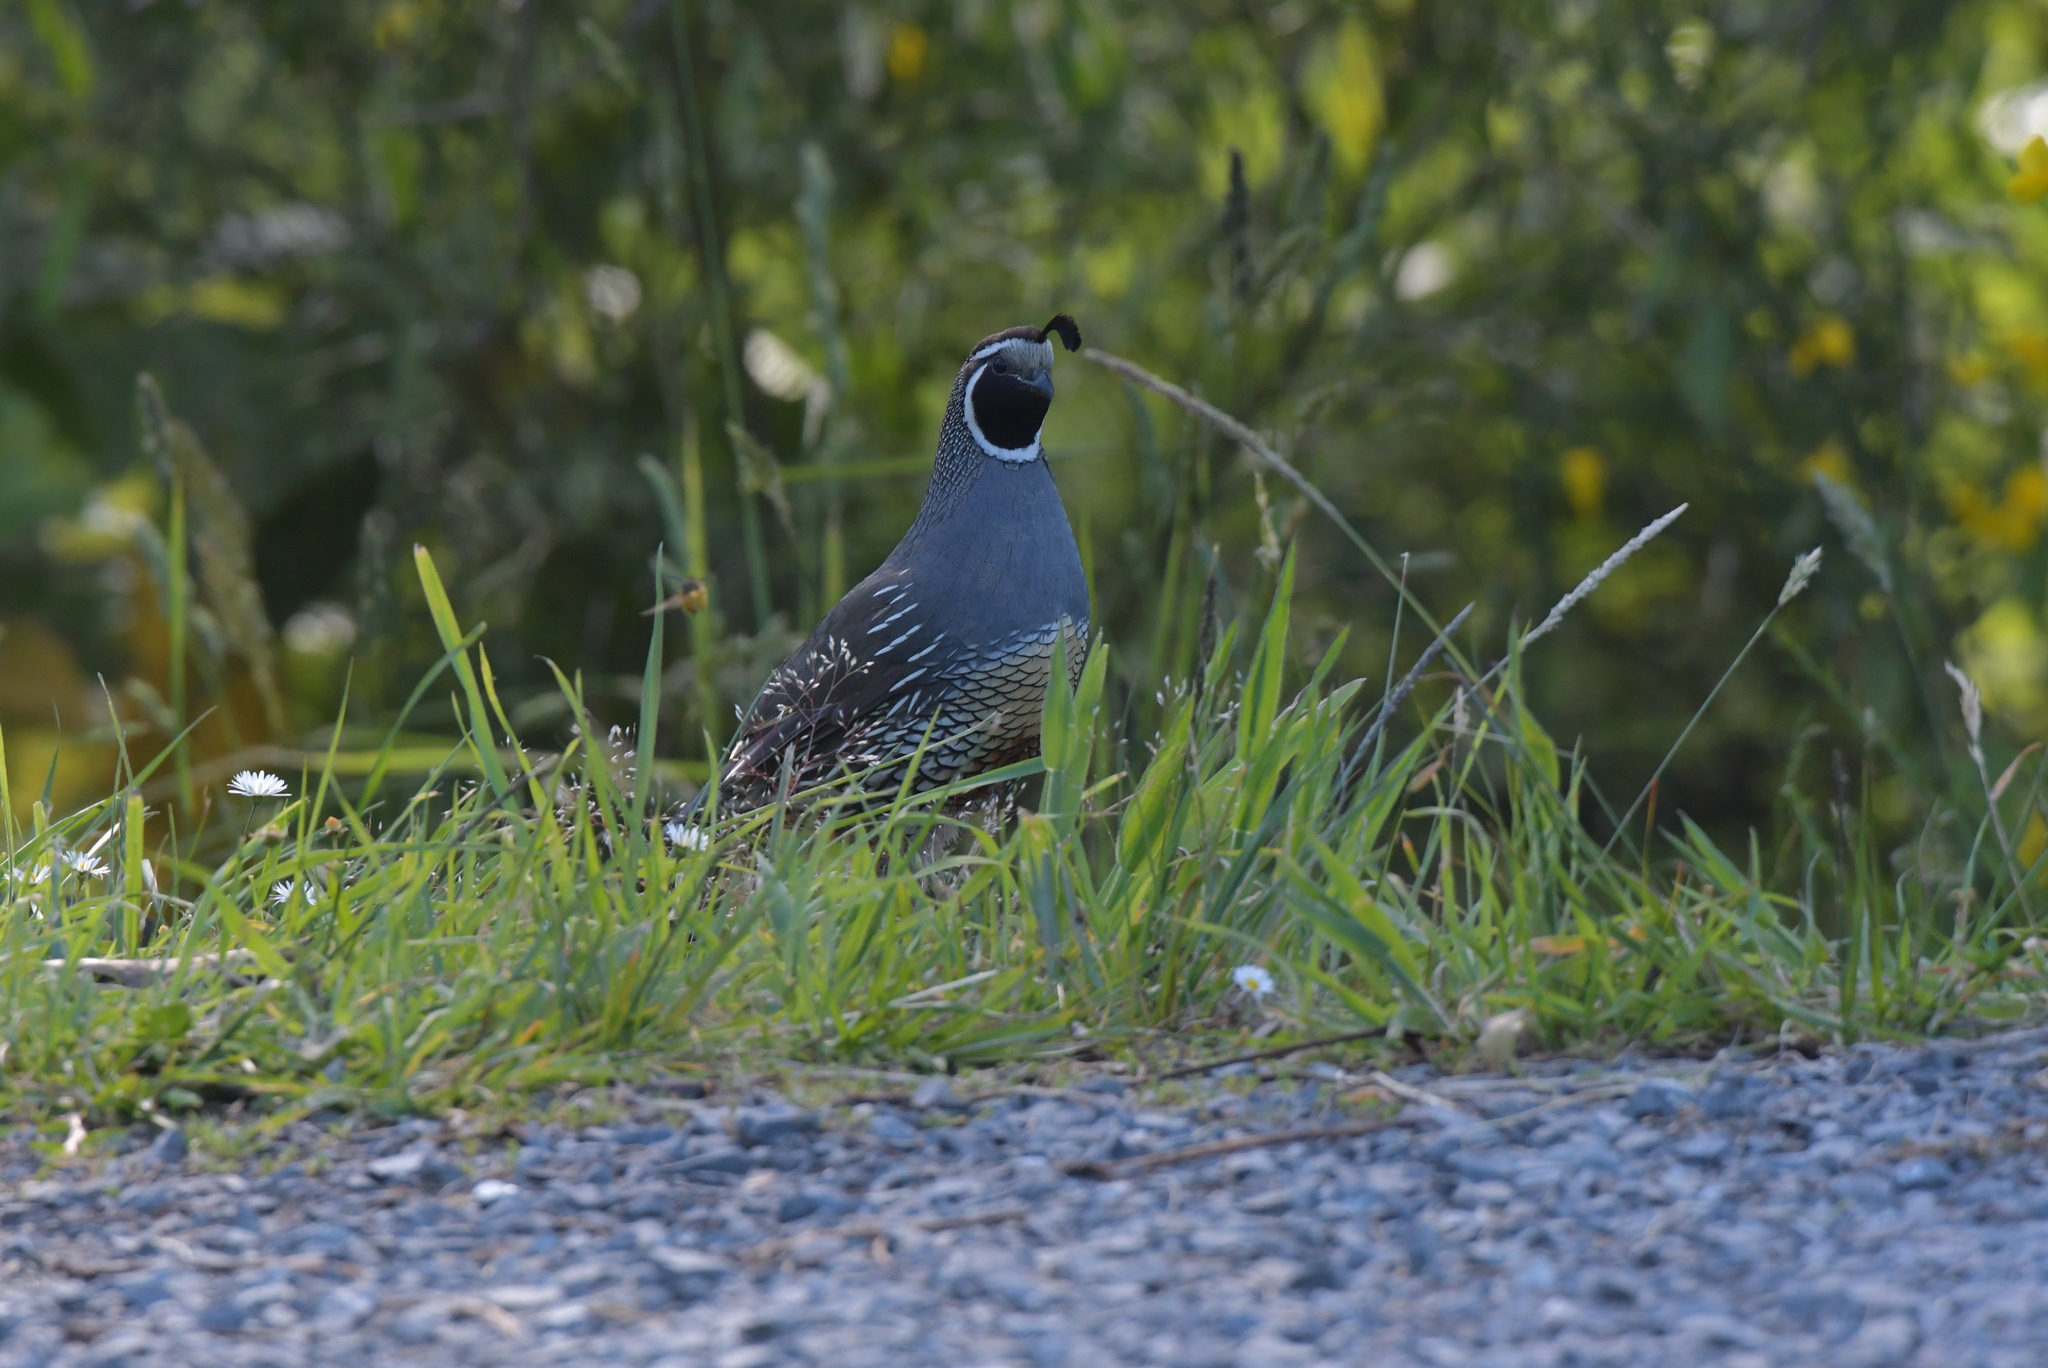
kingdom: Animalia
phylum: Chordata
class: Aves
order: Galliformes
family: Odontophoridae
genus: Callipepla
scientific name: Callipepla californica
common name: California quail
